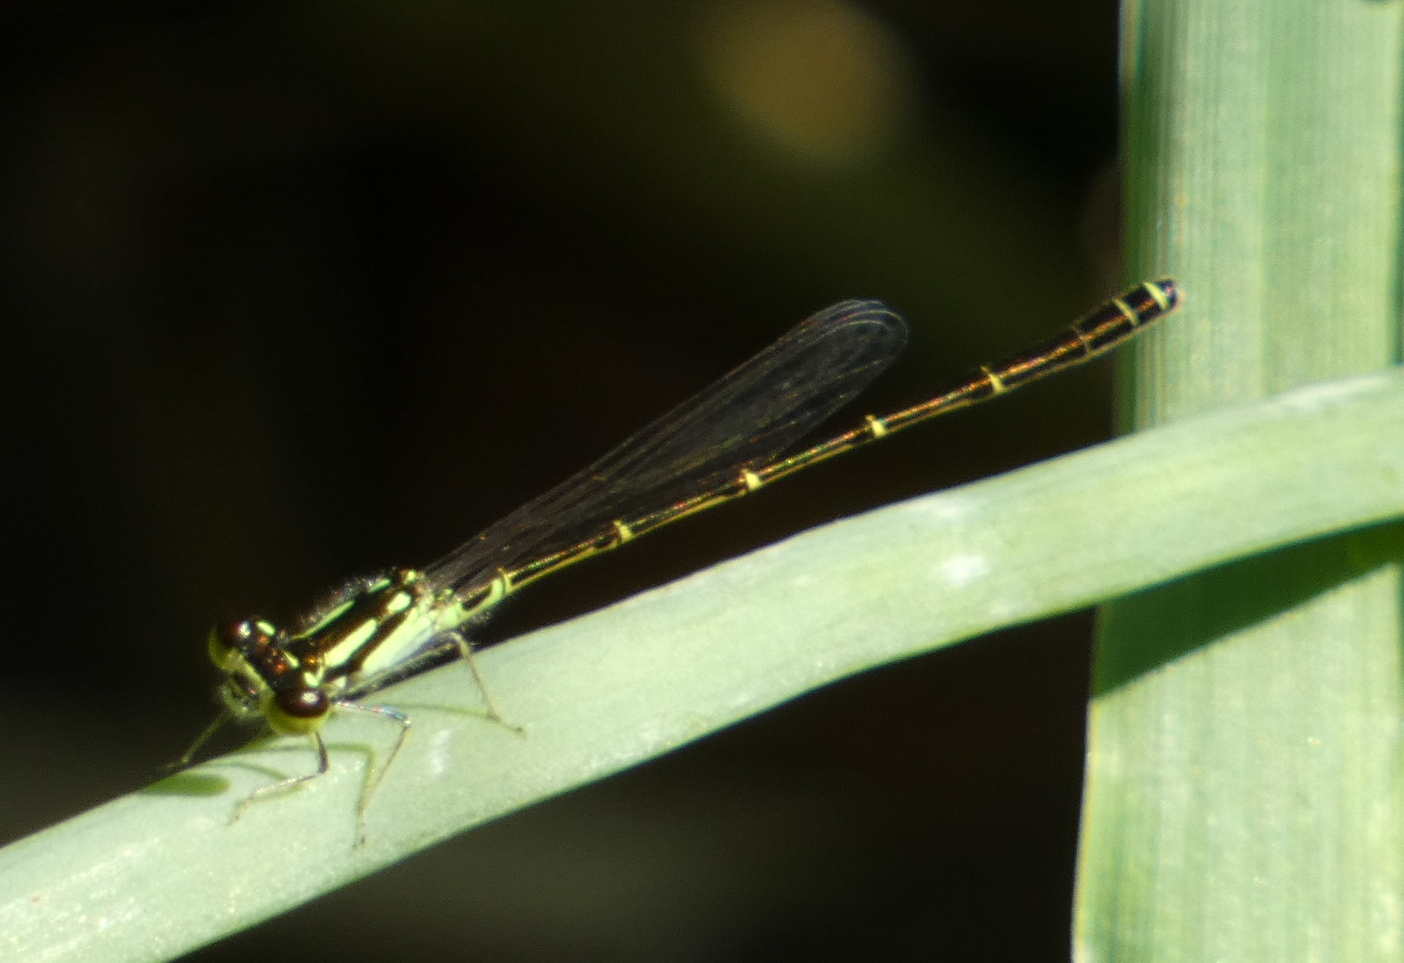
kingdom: Animalia
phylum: Arthropoda
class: Insecta
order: Odonata
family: Coenagrionidae
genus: Ischnura
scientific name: Ischnura posita
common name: Fragile forktail
